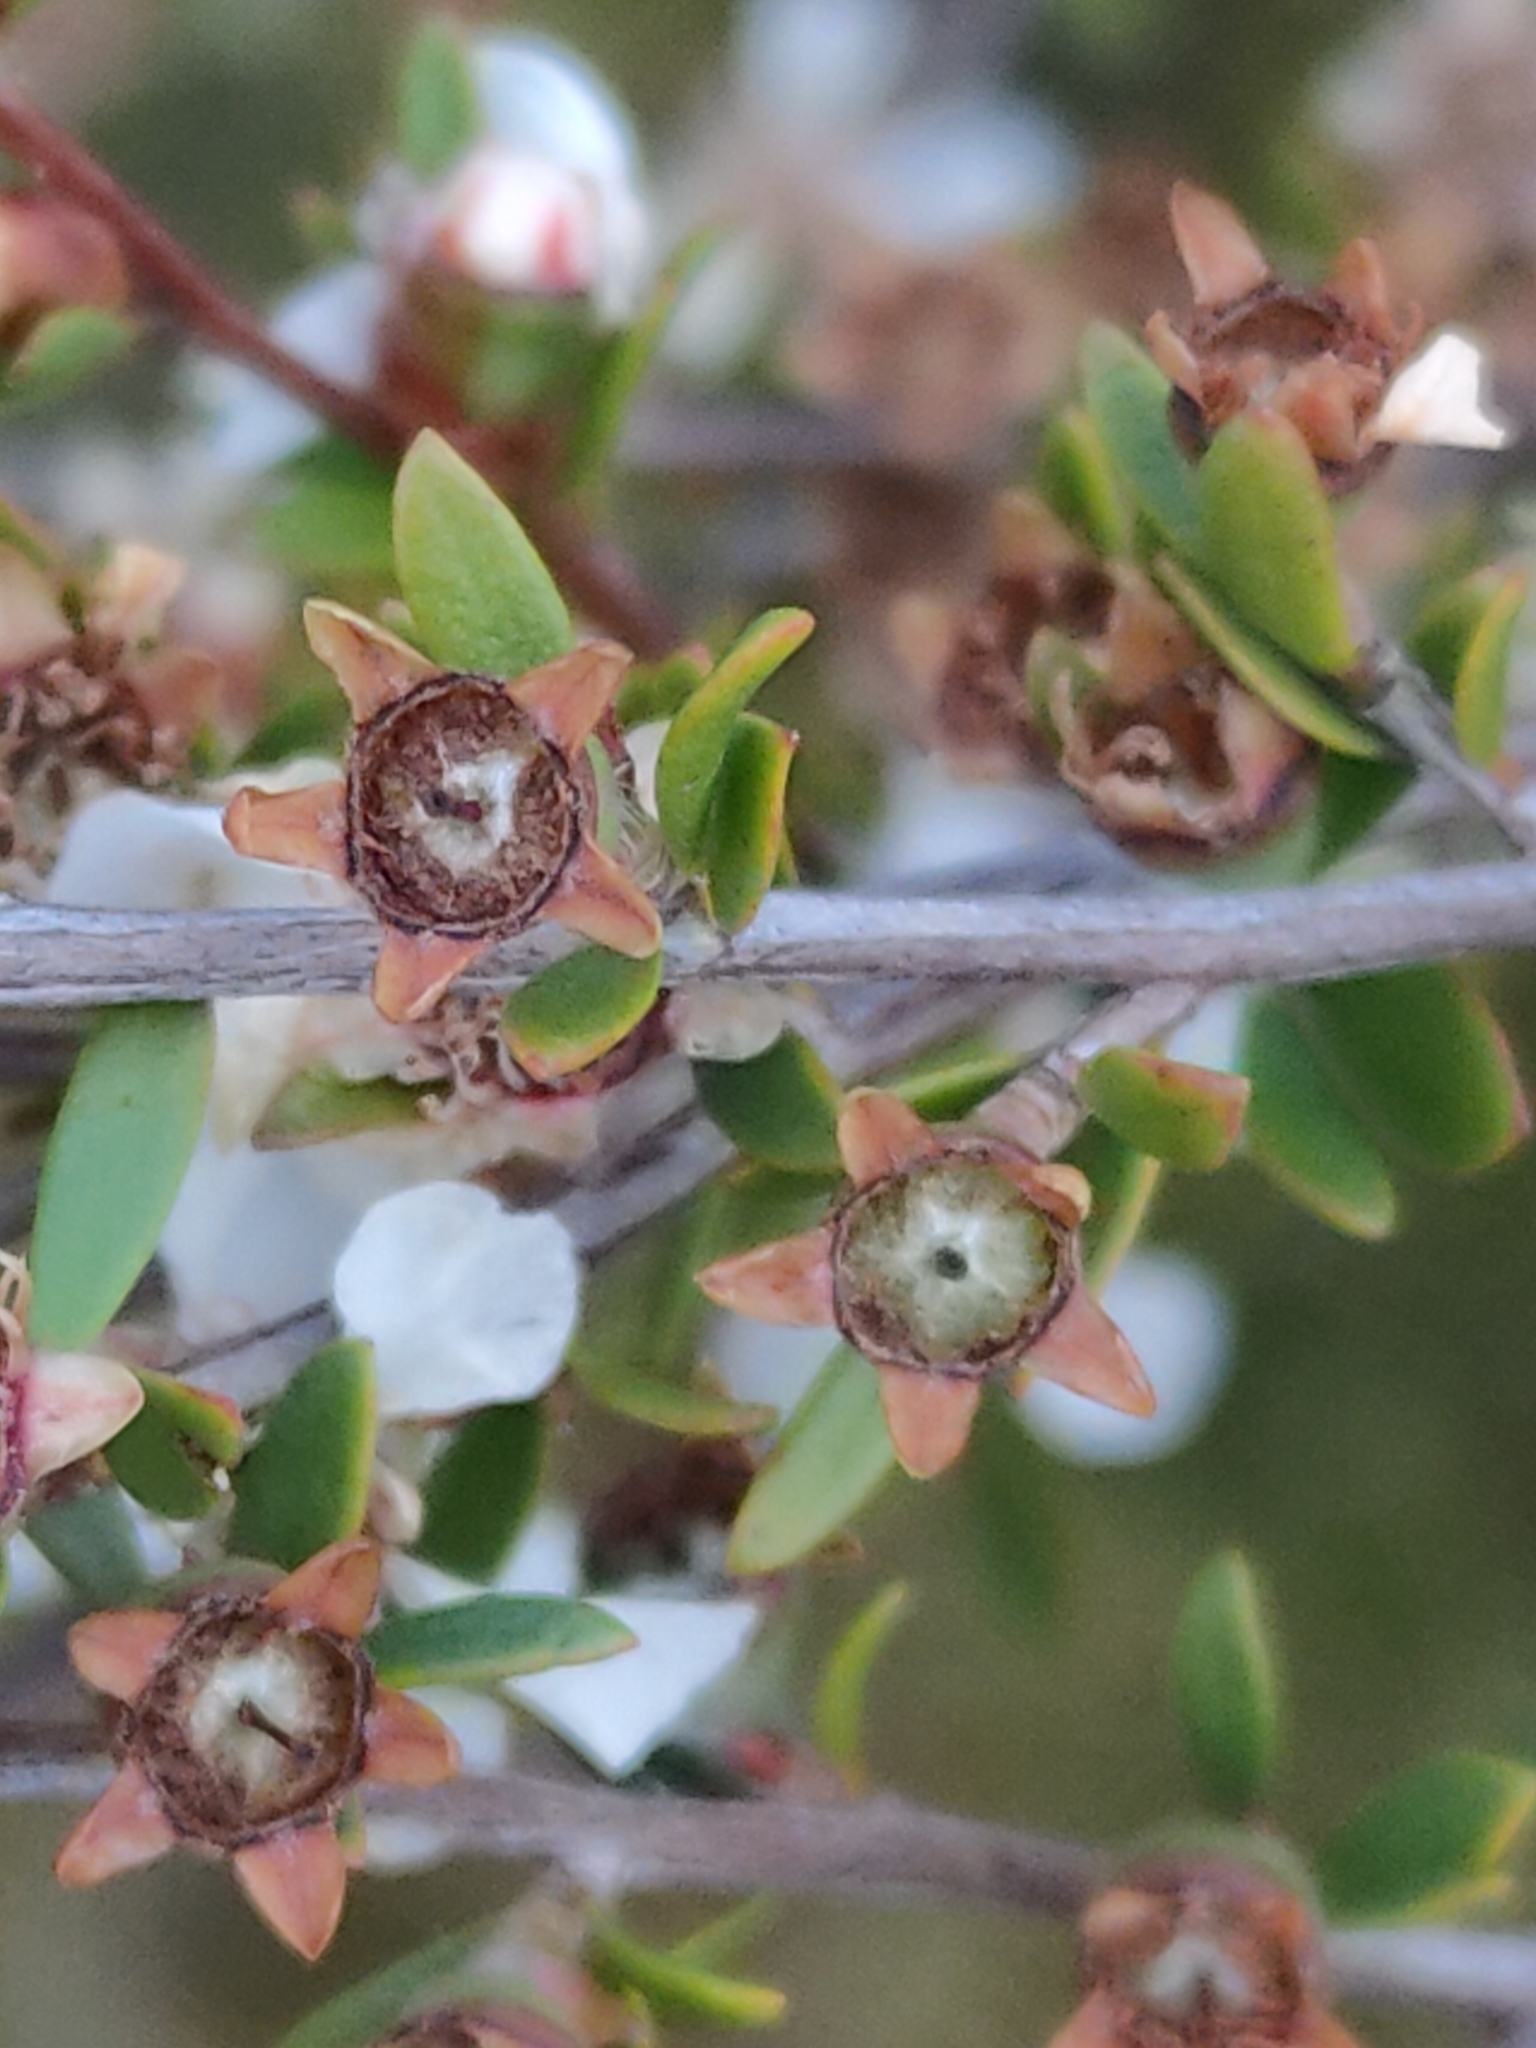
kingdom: Plantae
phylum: Tracheophyta
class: Magnoliopsida
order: Myrtales
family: Myrtaceae
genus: Leptospermum
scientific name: Leptospermum semibaccatum
